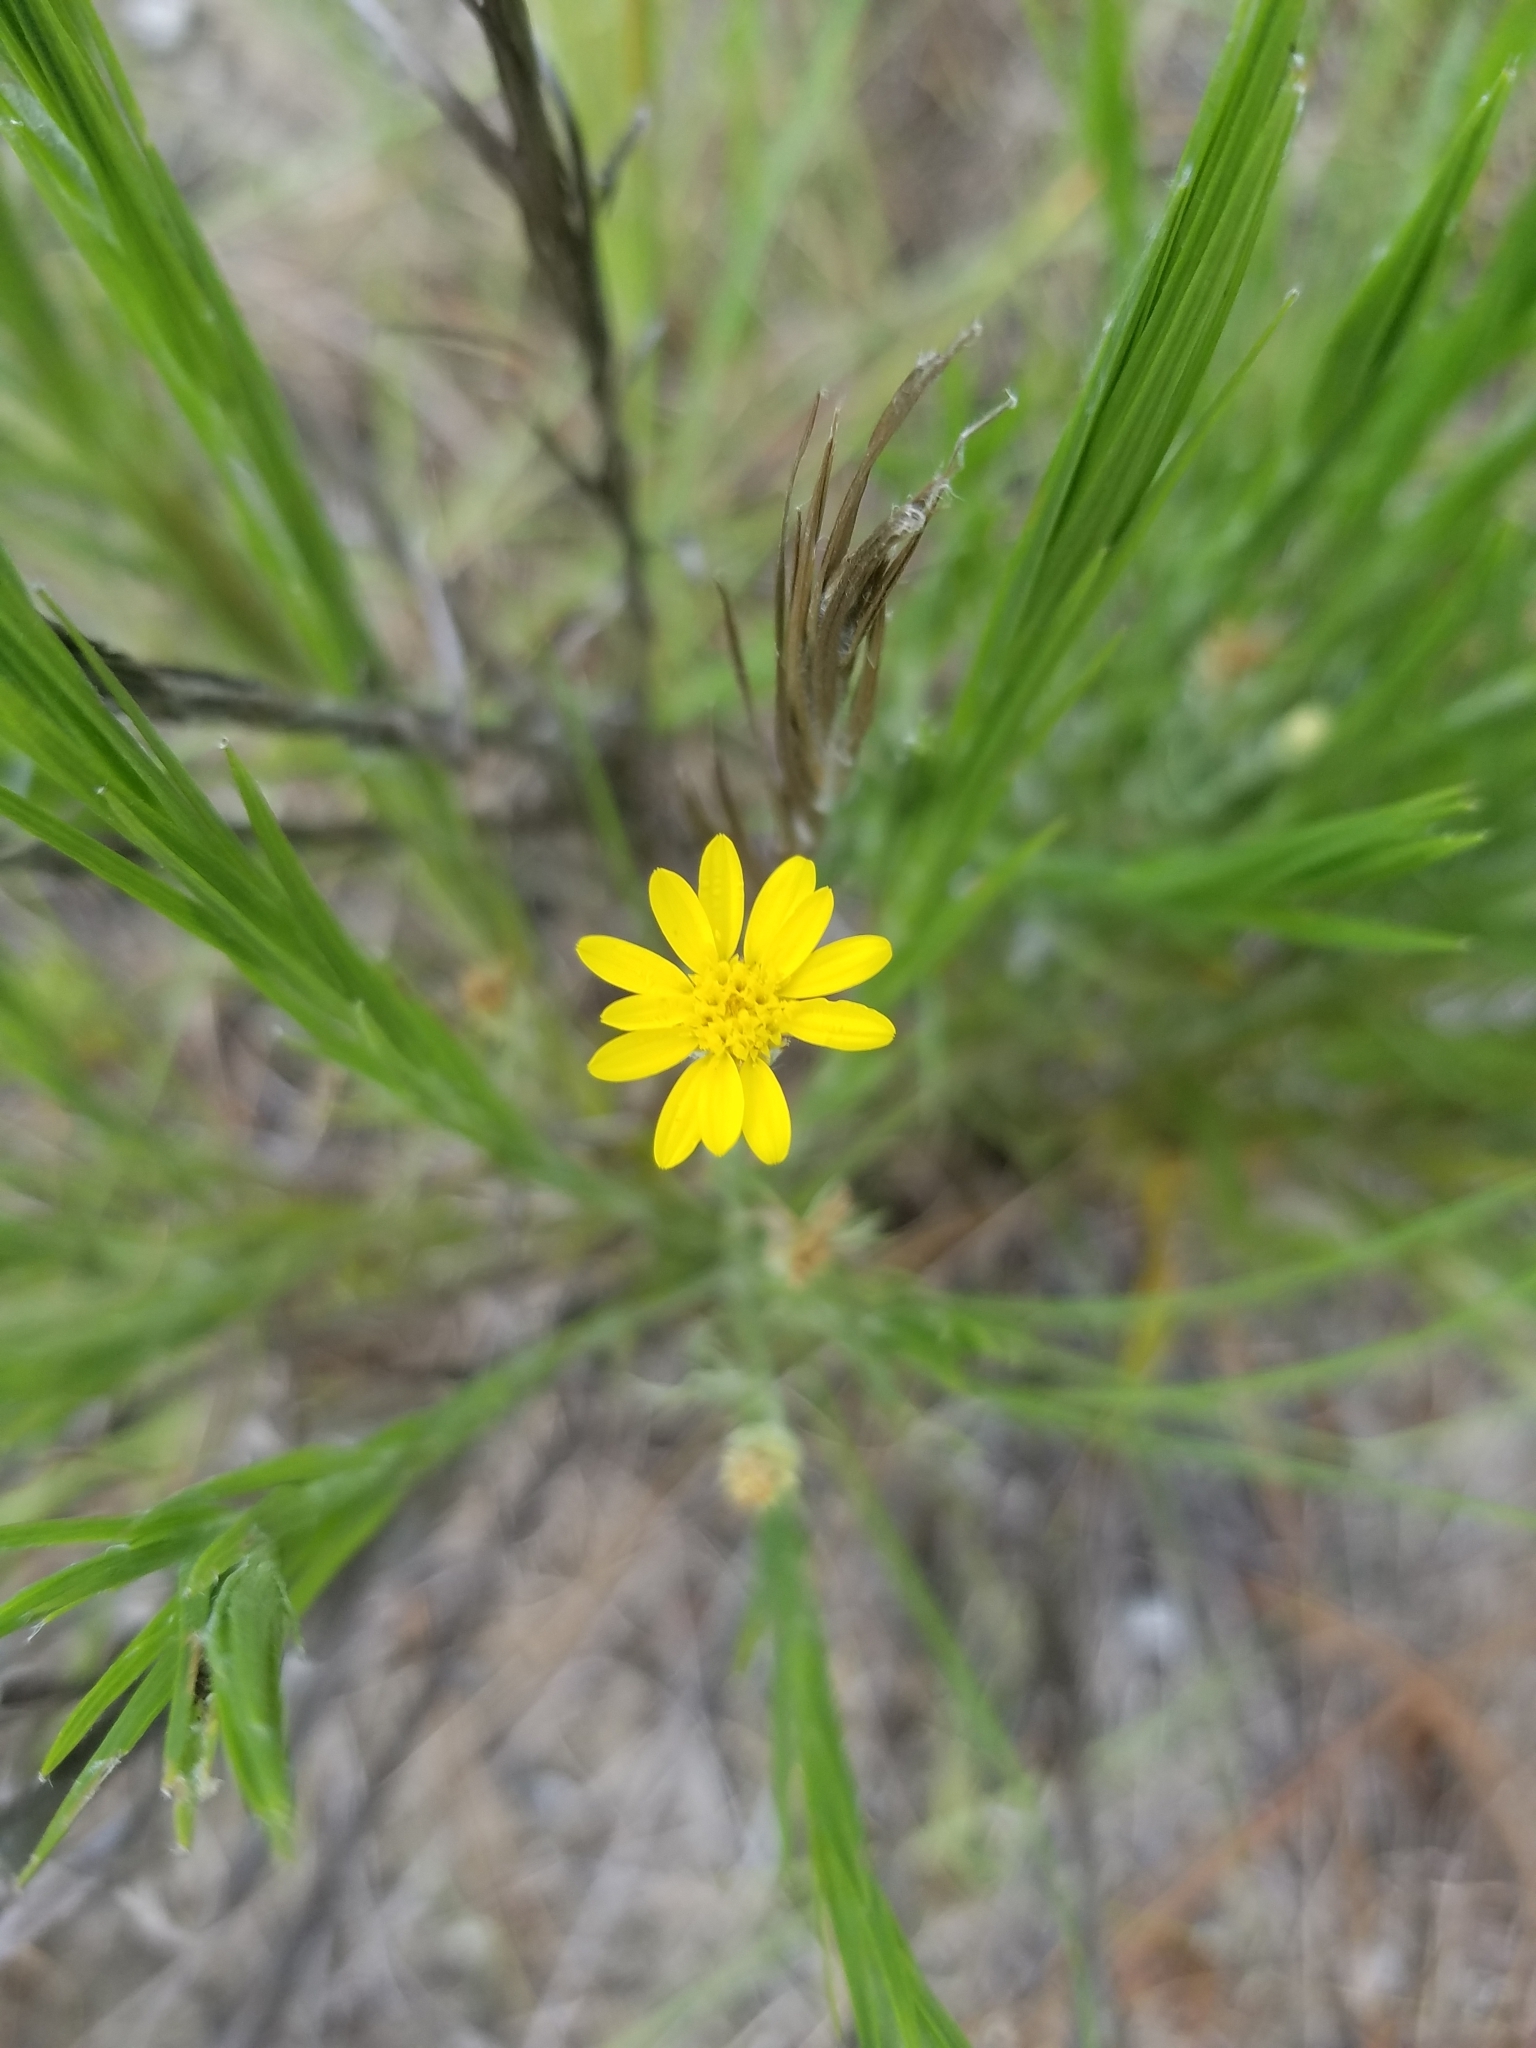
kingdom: Plantae
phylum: Tracheophyta
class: Magnoliopsida
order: Asterales
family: Asteraceae
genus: Pityopsis
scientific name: Pityopsis aequilifolia
